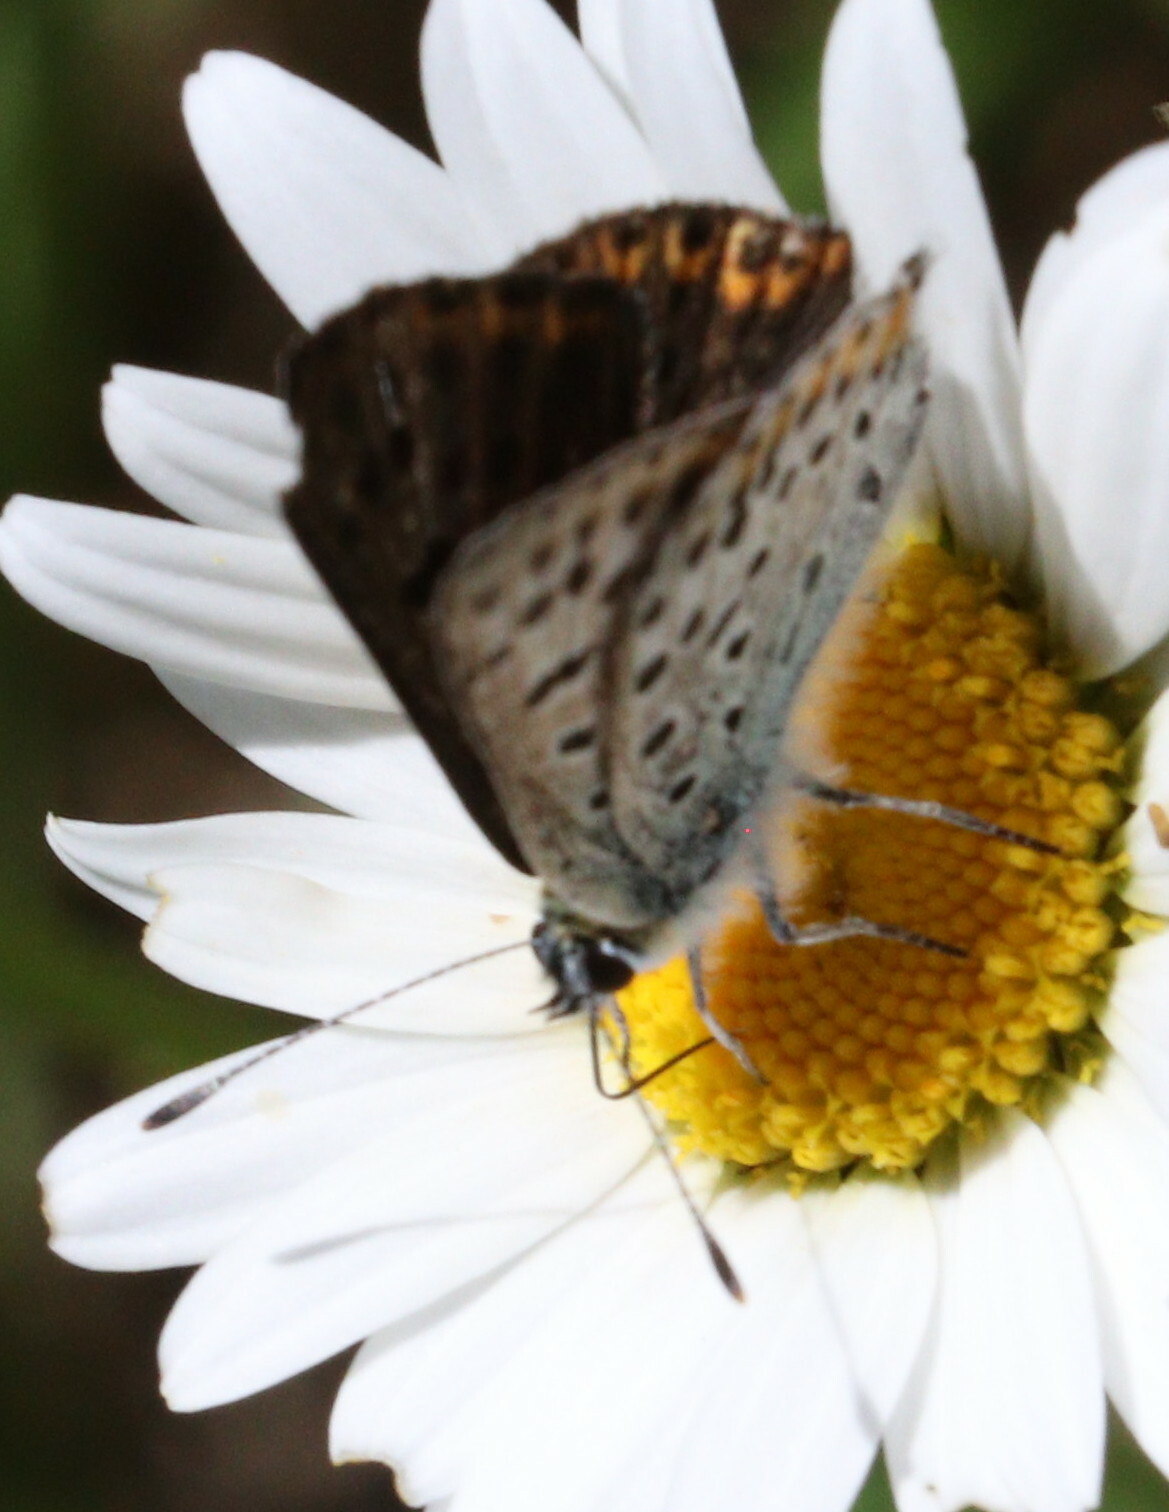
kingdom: Animalia
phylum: Arthropoda
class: Insecta
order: Lepidoptera
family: Lycaenidae
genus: Loweia
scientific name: Loweia tityrus
